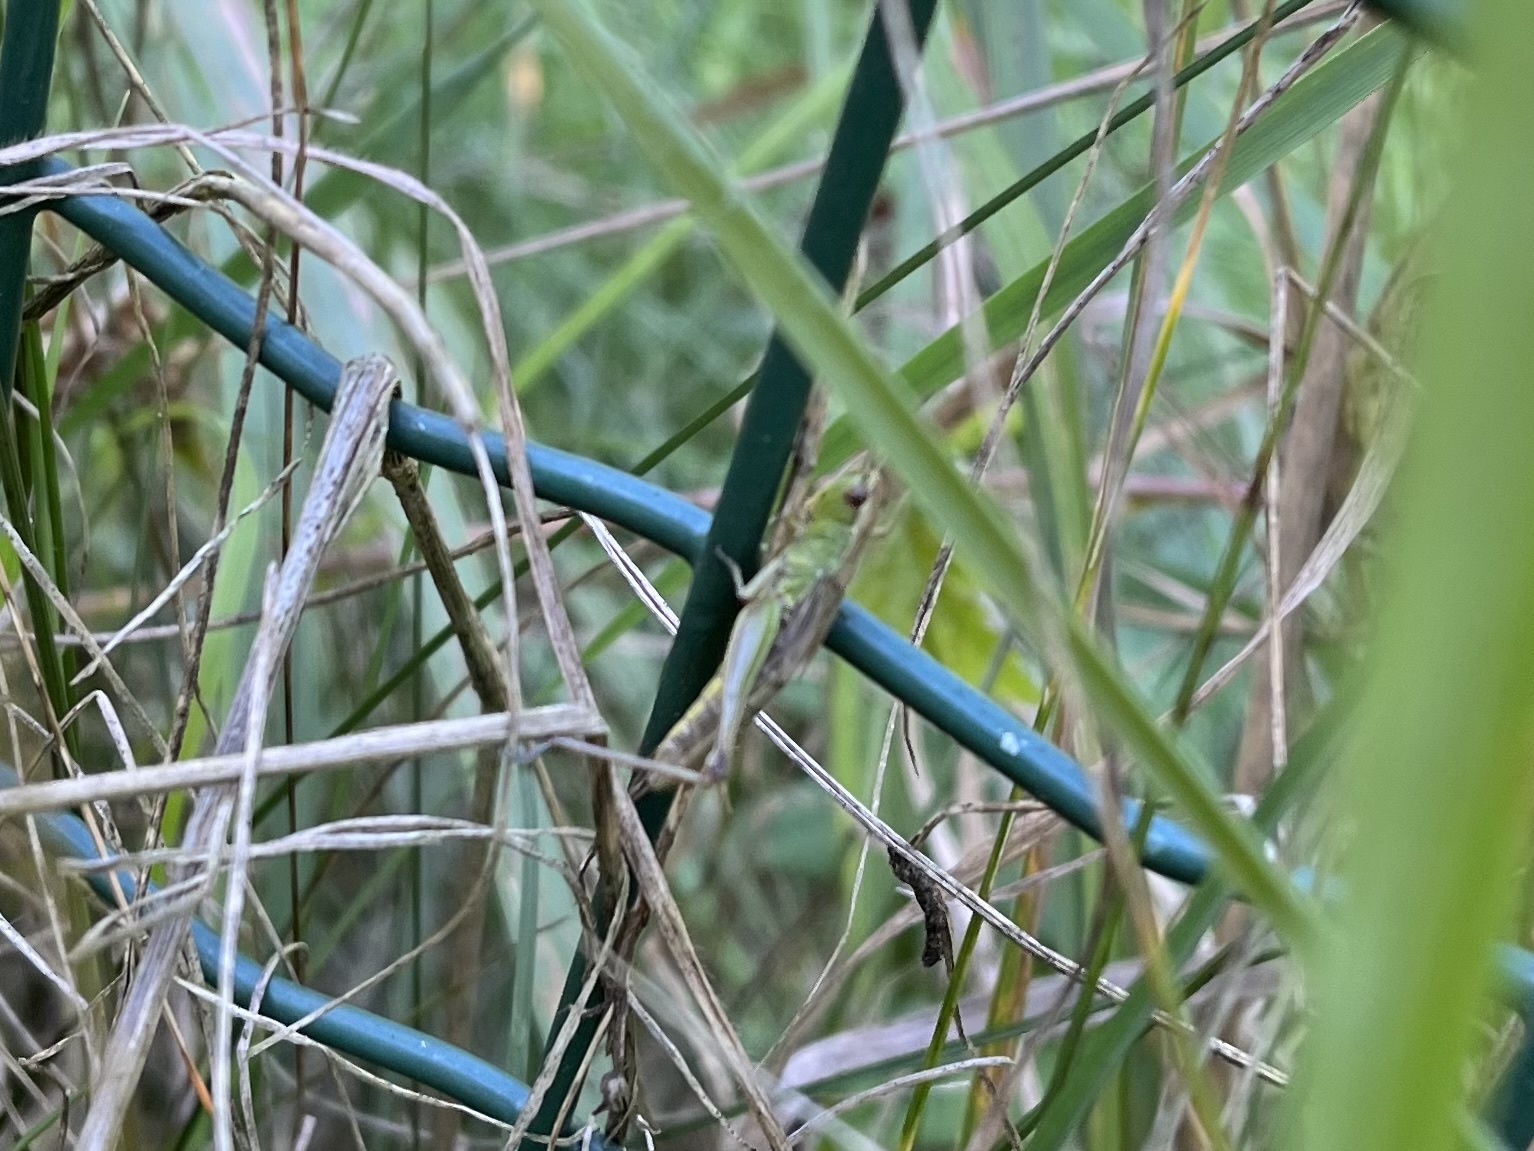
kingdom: Animalia
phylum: Arthropoda
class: Insecta
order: Orthoptera
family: Acrididae
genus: Pseudochorthippus
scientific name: Pseudochorthippus parallelus
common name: Meadow grasshopper
